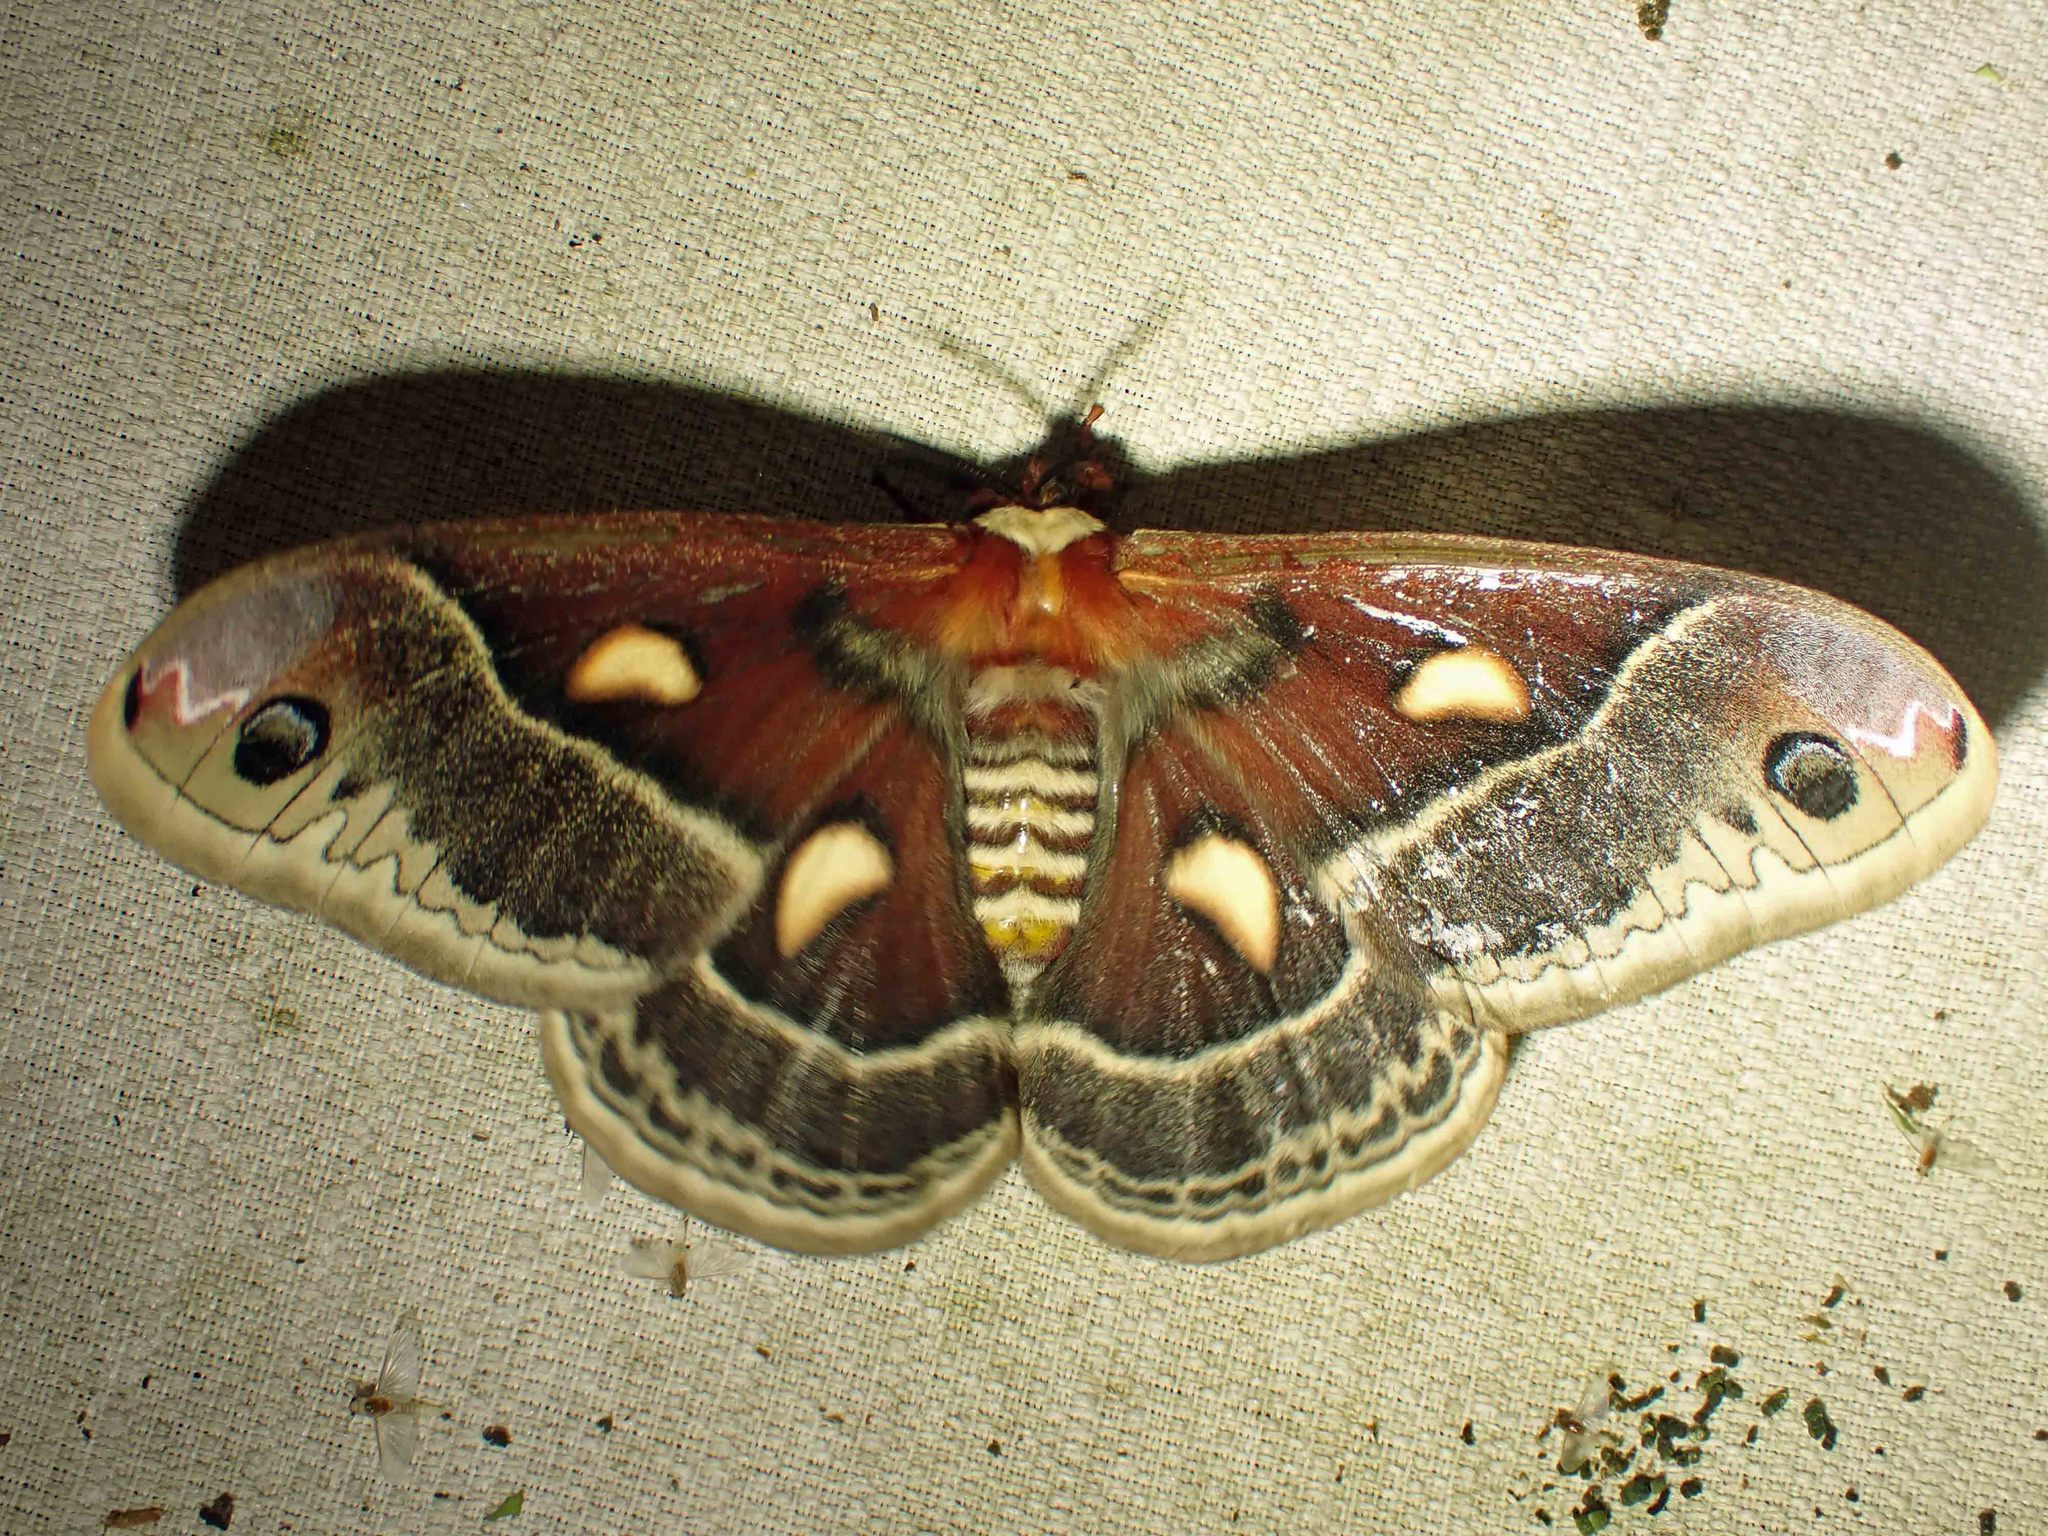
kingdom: Animalia
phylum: Arthropoda
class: Insecta
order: Lepidoptera
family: Saturniidae
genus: Hyalophora
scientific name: Hyalophora columbia
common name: Columbia silkmoth
